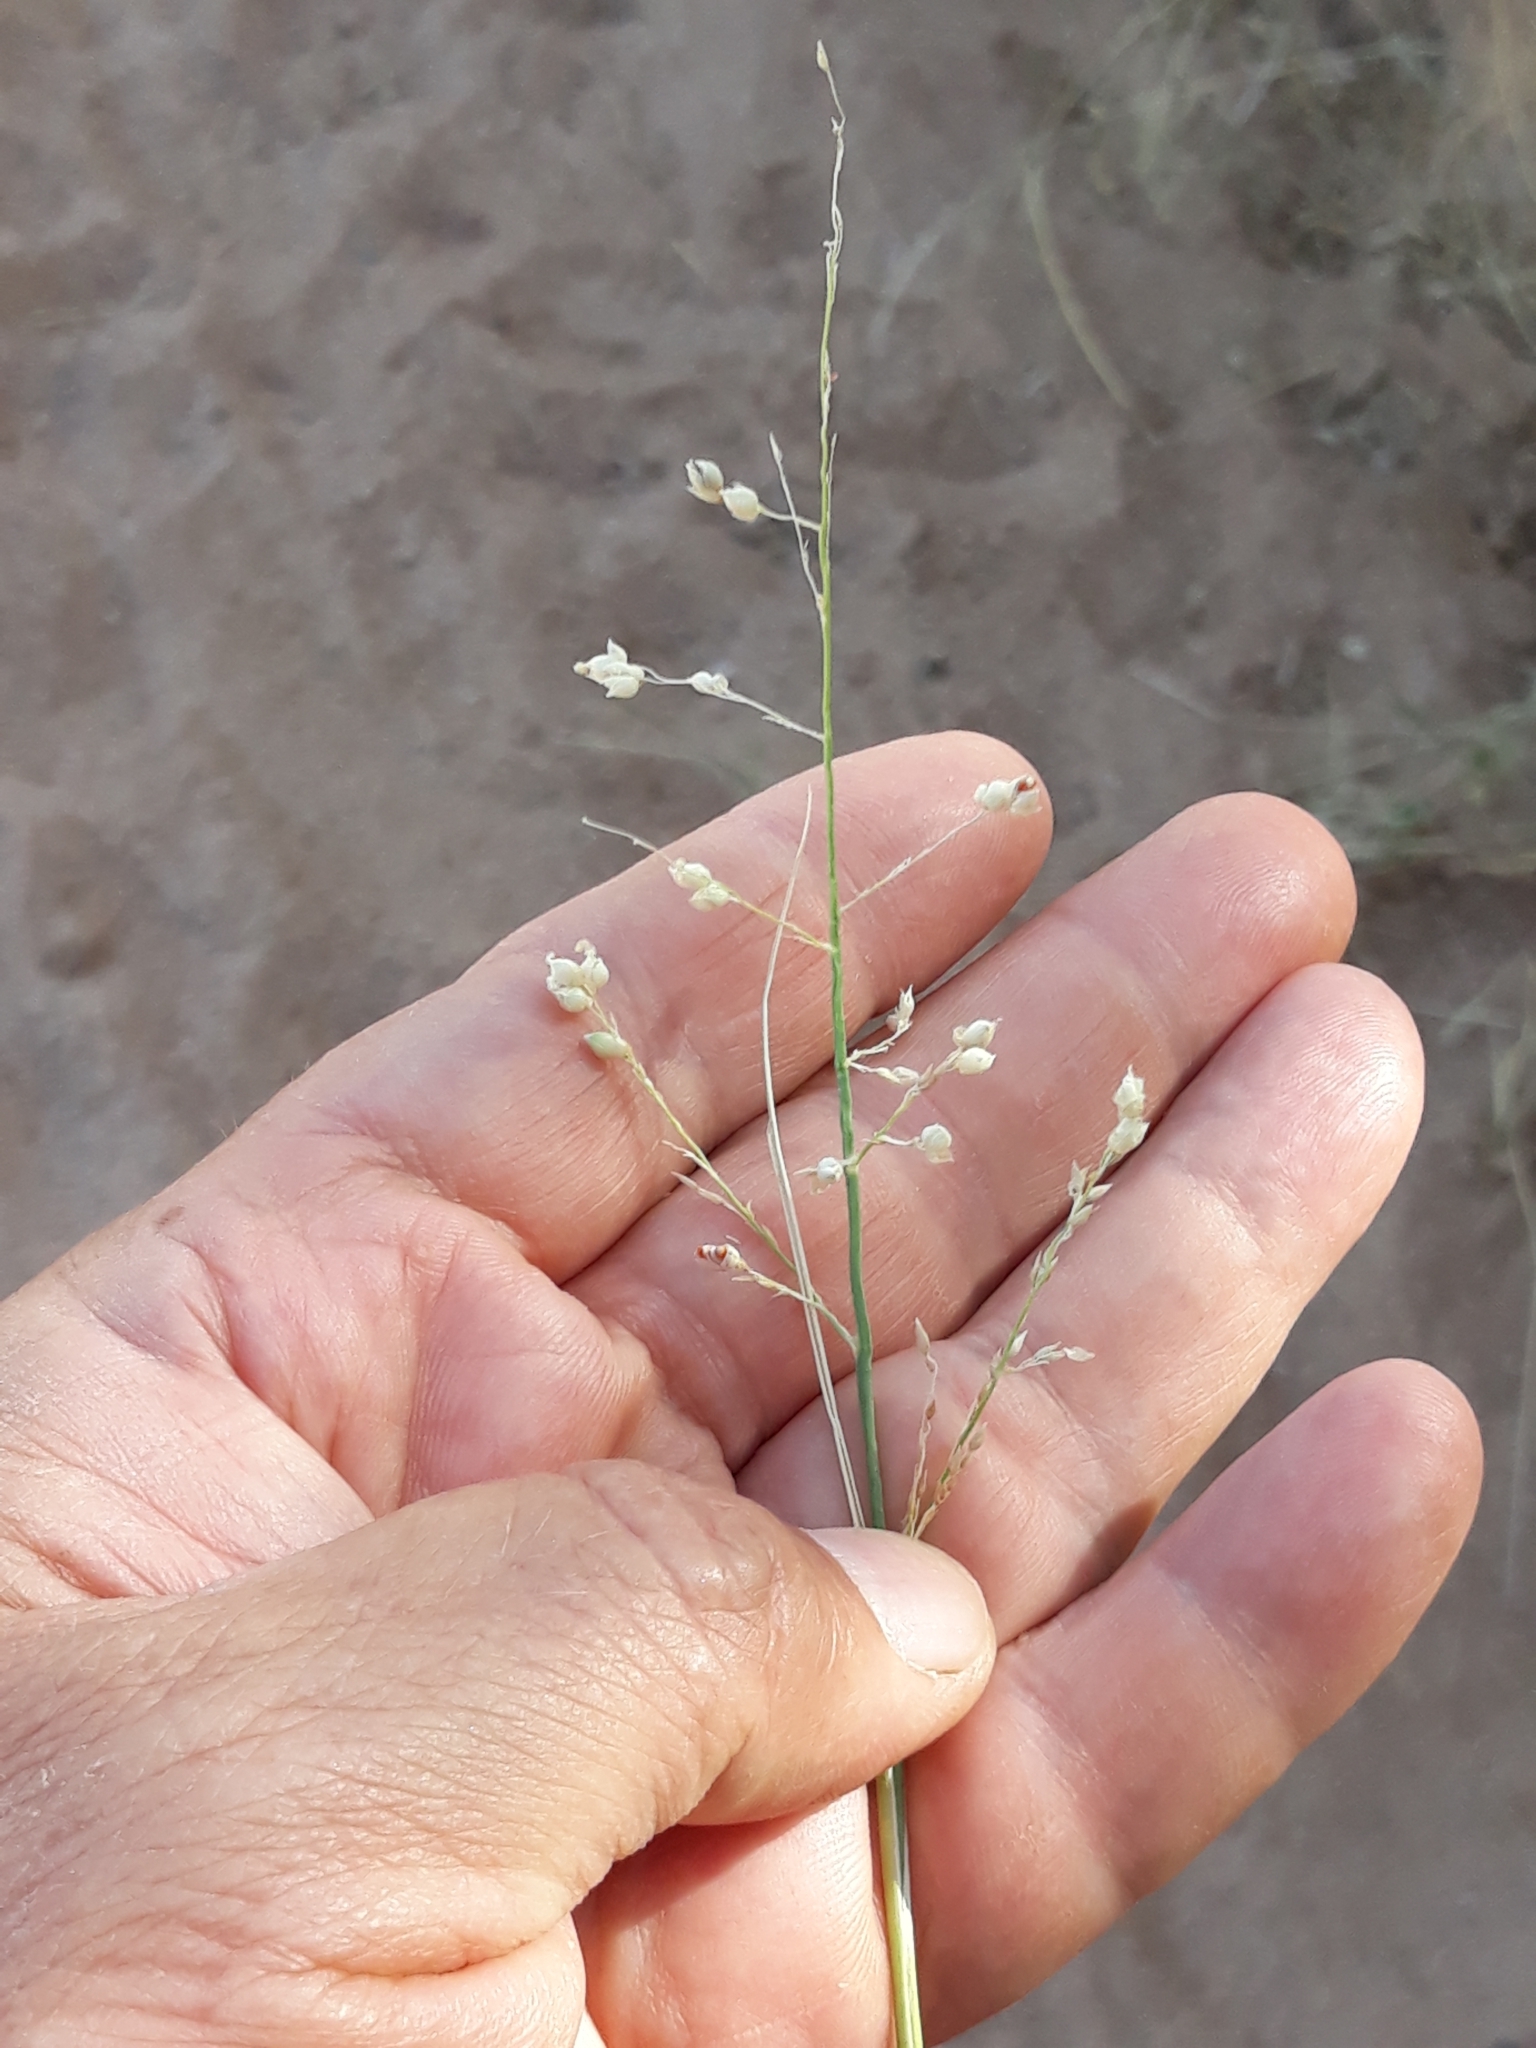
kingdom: Plantae
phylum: Tracheophyta
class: Liliopsida
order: Poales
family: Poaceae
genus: Panicum
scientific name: Panicum turgidum
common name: Desert grass
